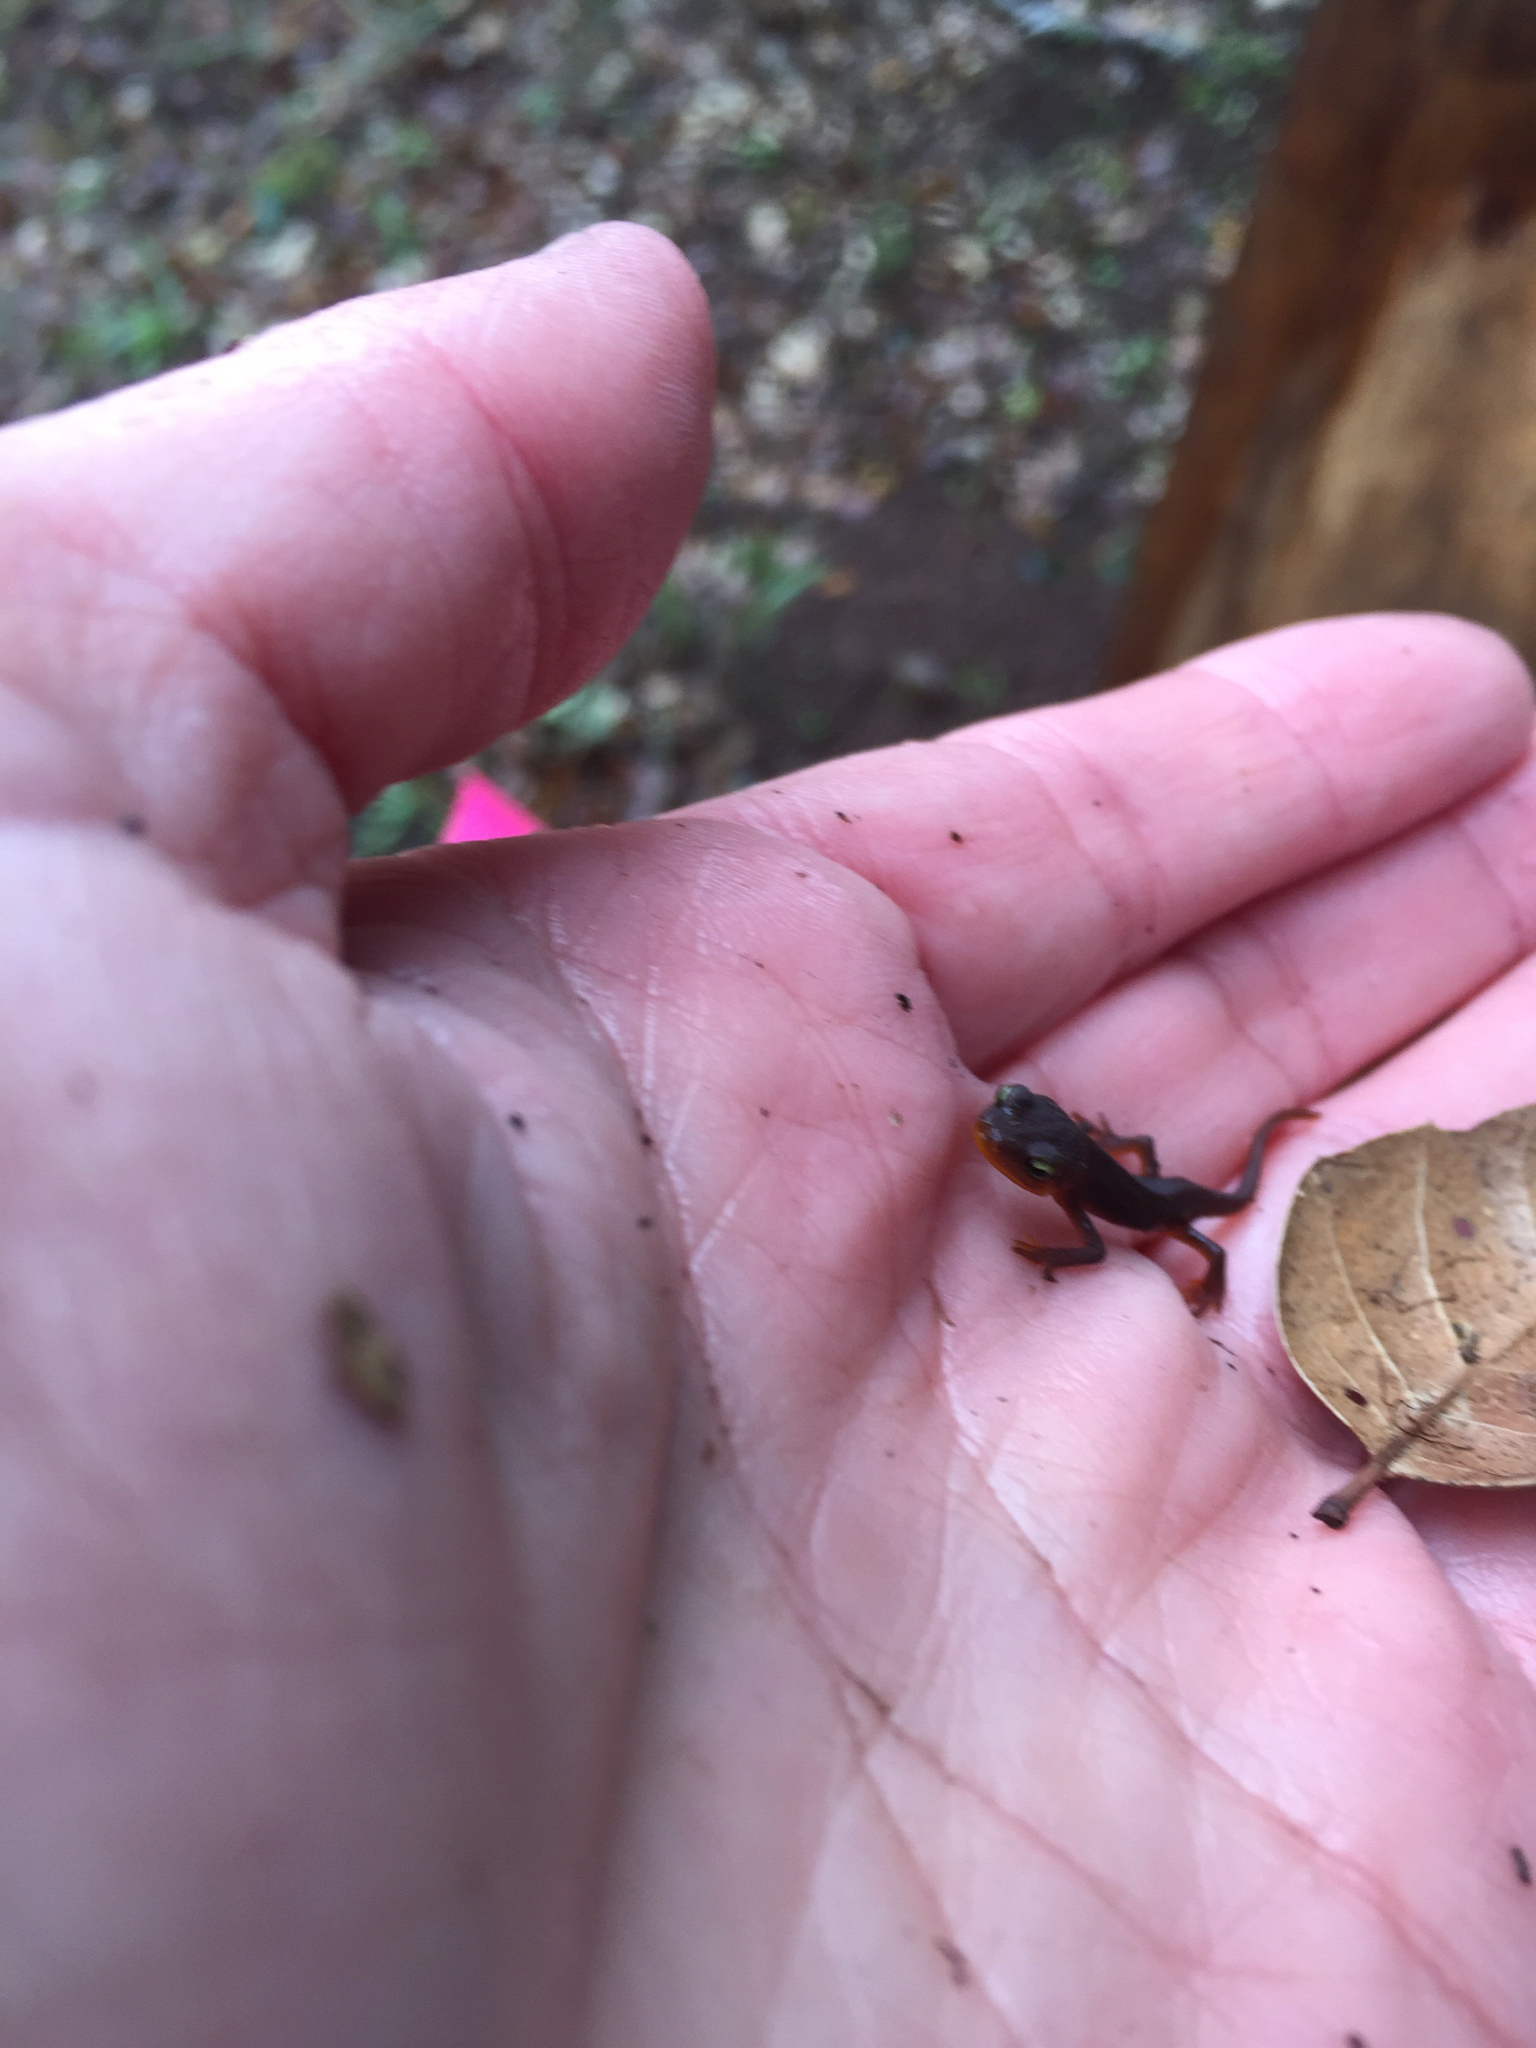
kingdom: Animalia
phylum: Chordata
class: Amphibia
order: Caudata
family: Salamandridae
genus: Taricha
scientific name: Taricha torosa
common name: California newt
